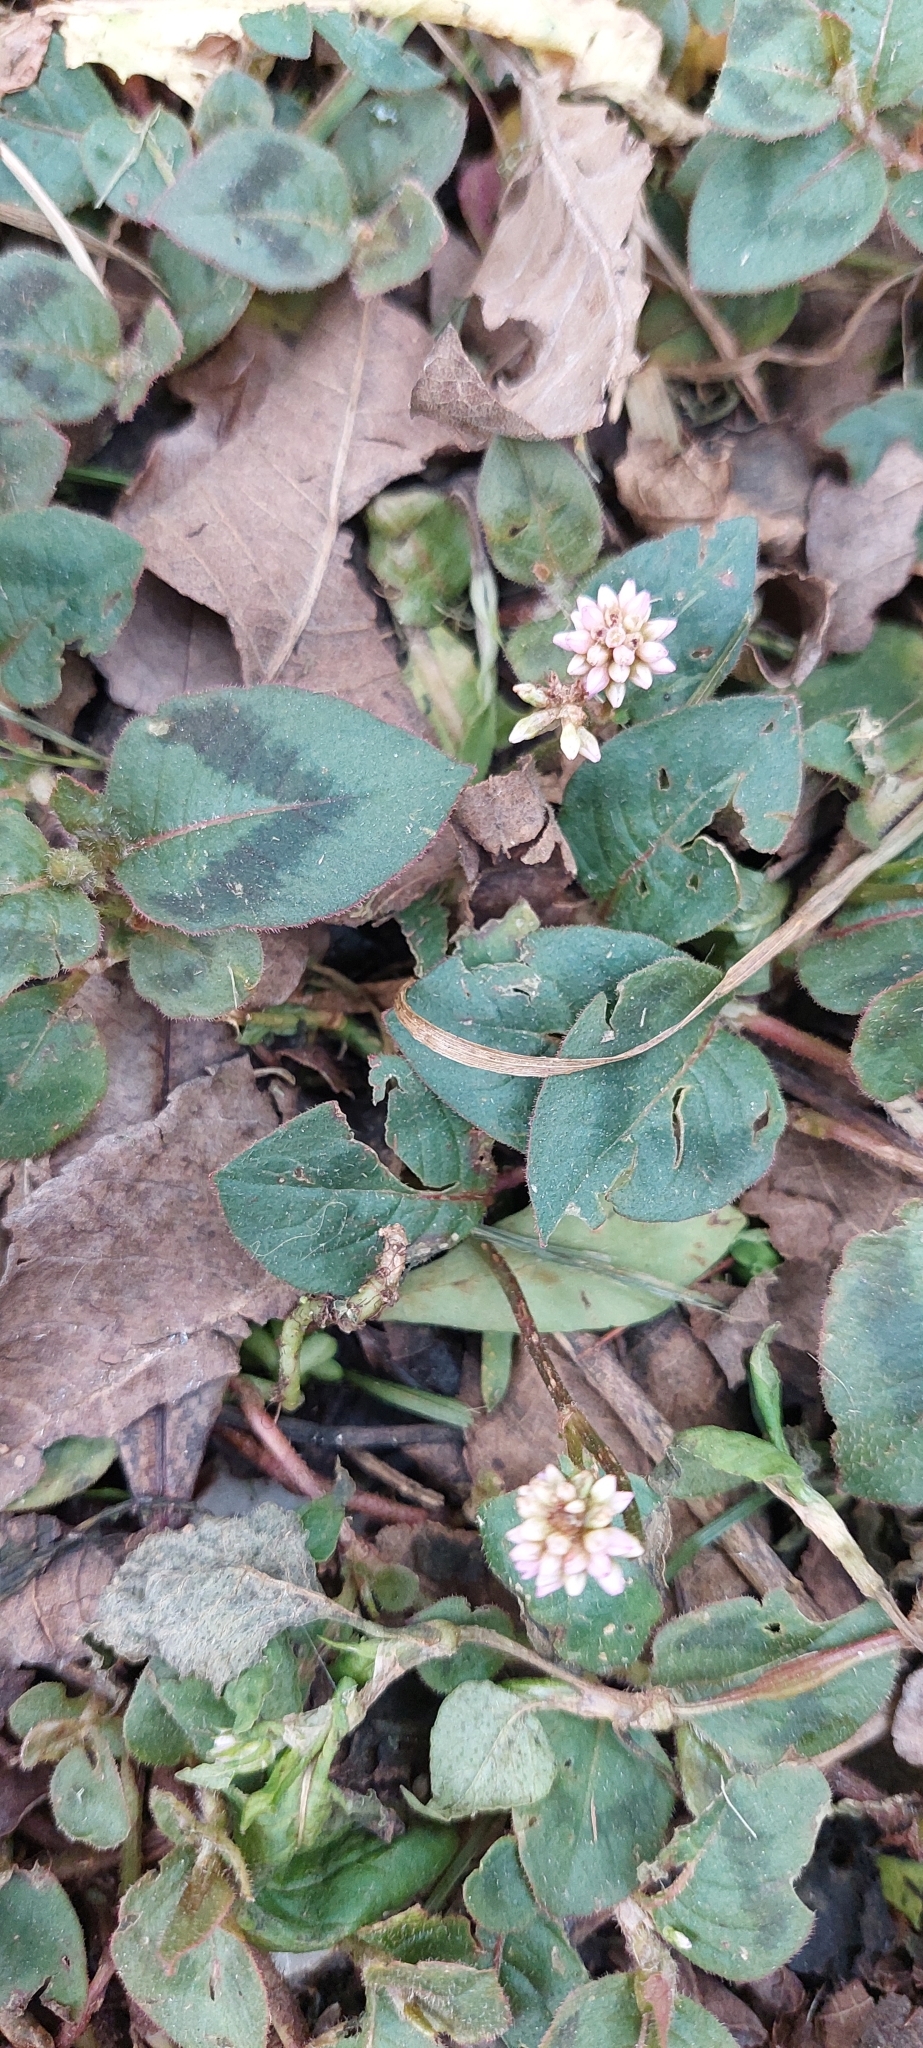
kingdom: Plantae
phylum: Tracheophyta
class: Magnoliopsida
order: Caryophyllales
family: Polygonaceae
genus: Persicaria
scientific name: Persicaria capitata
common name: Pinkhead smartweed
